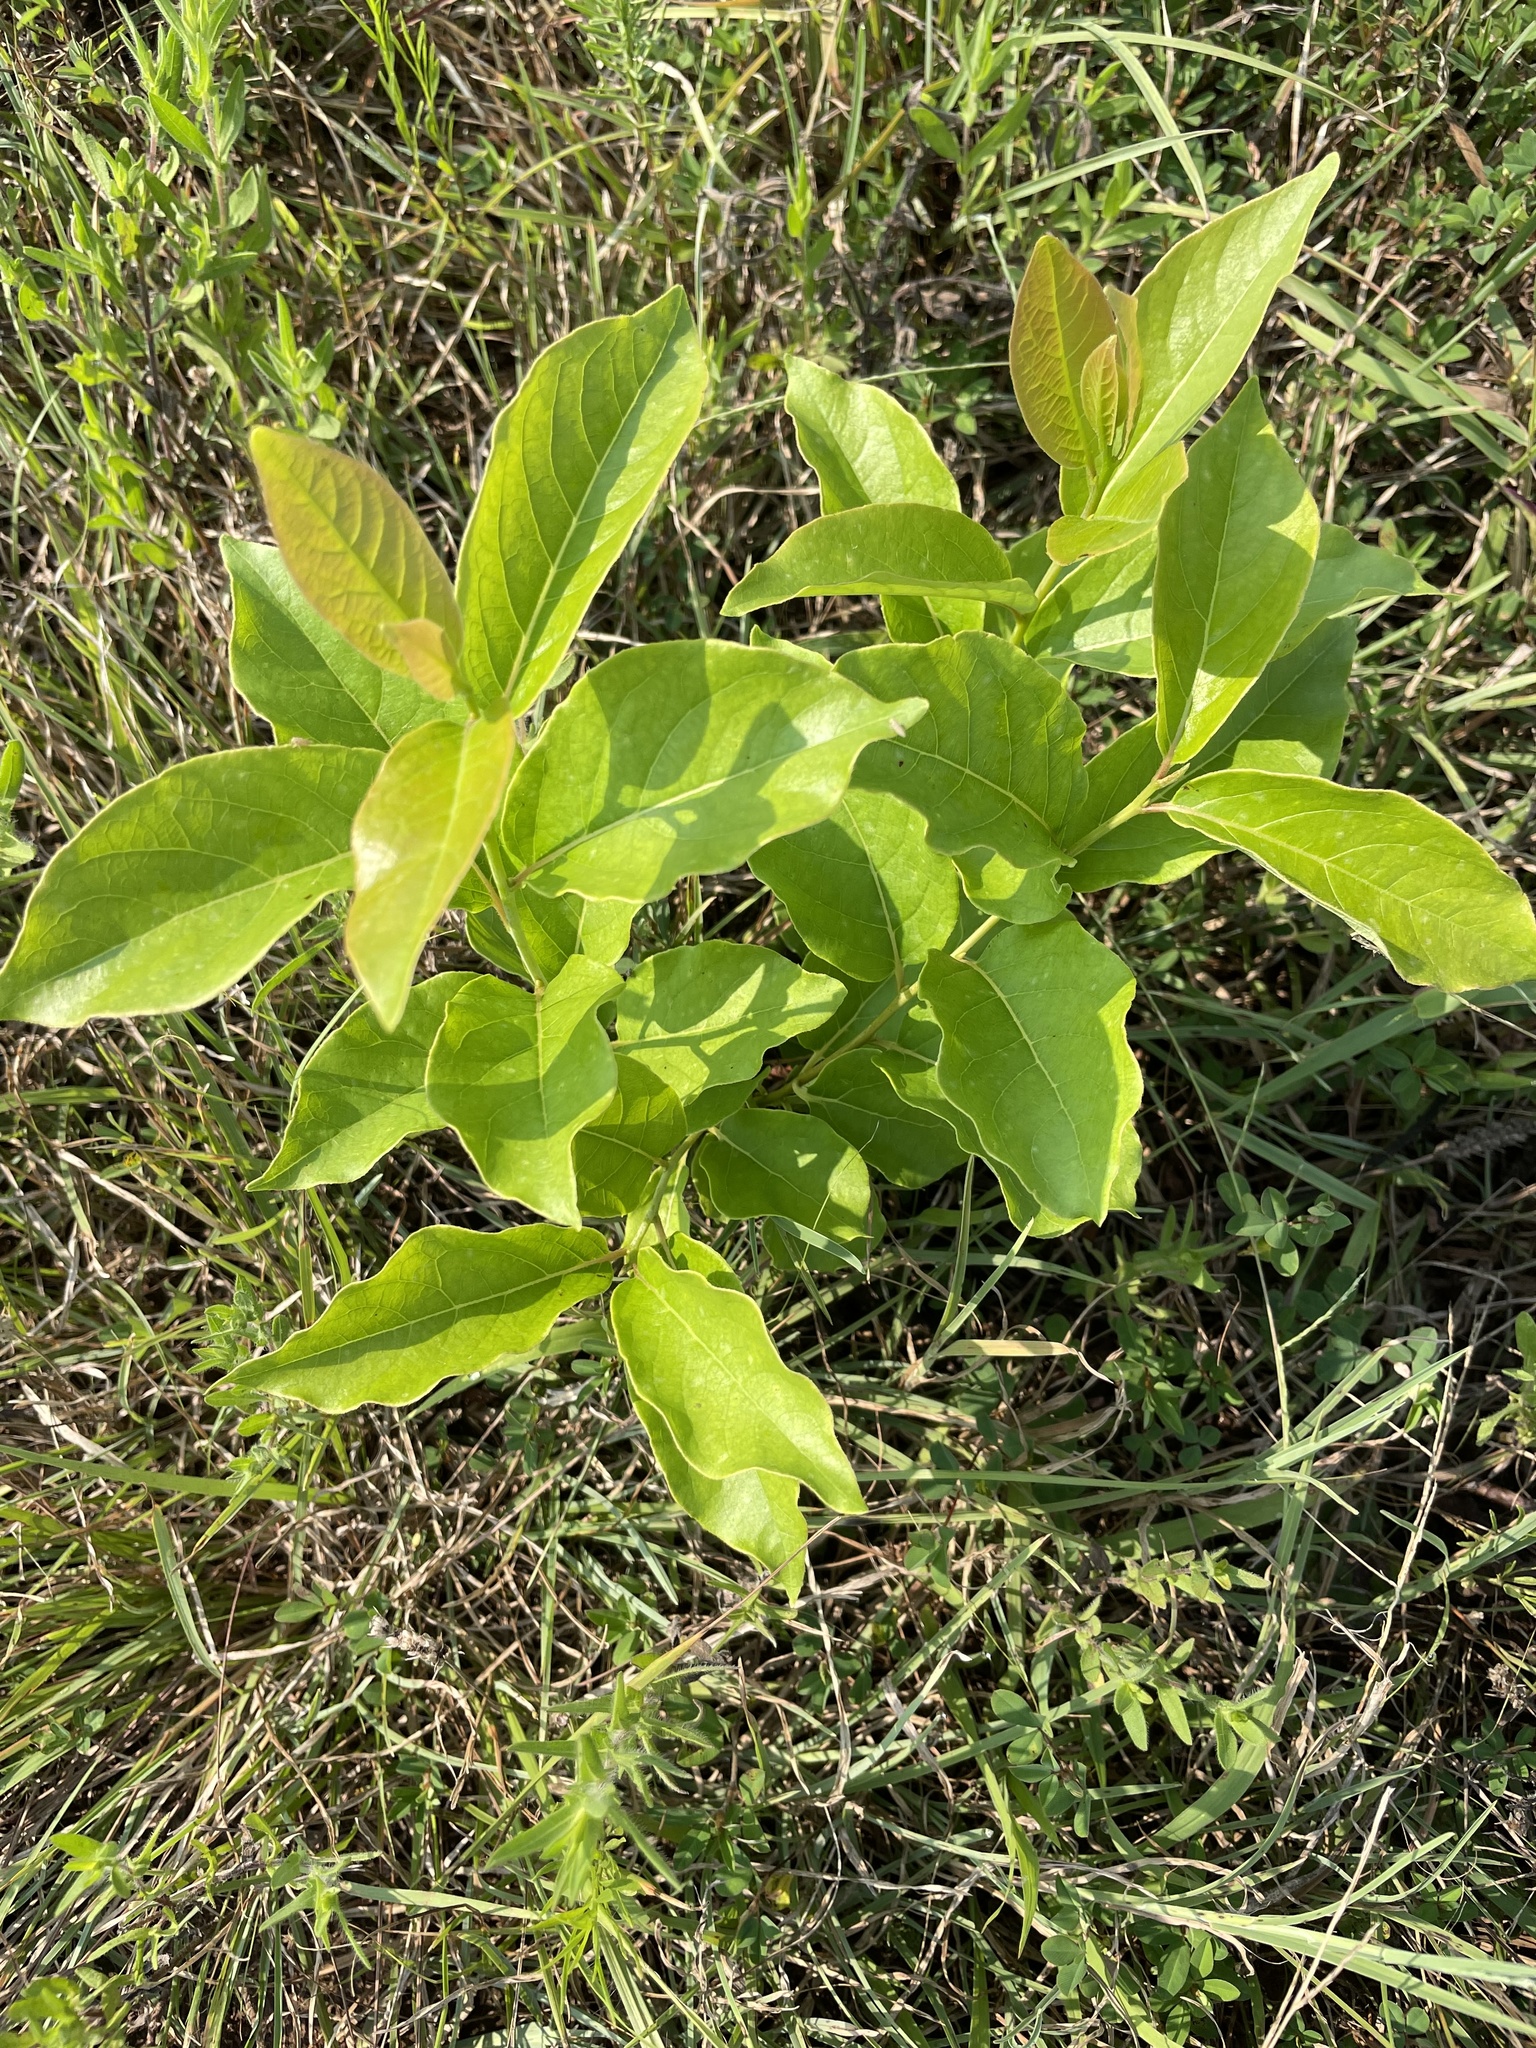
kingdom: Plantae
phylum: Tracheophyta
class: Magnoliopsida
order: Ericales
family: Ebenaceae
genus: Diospyros
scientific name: Diospyros virginiana
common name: Persimmon
